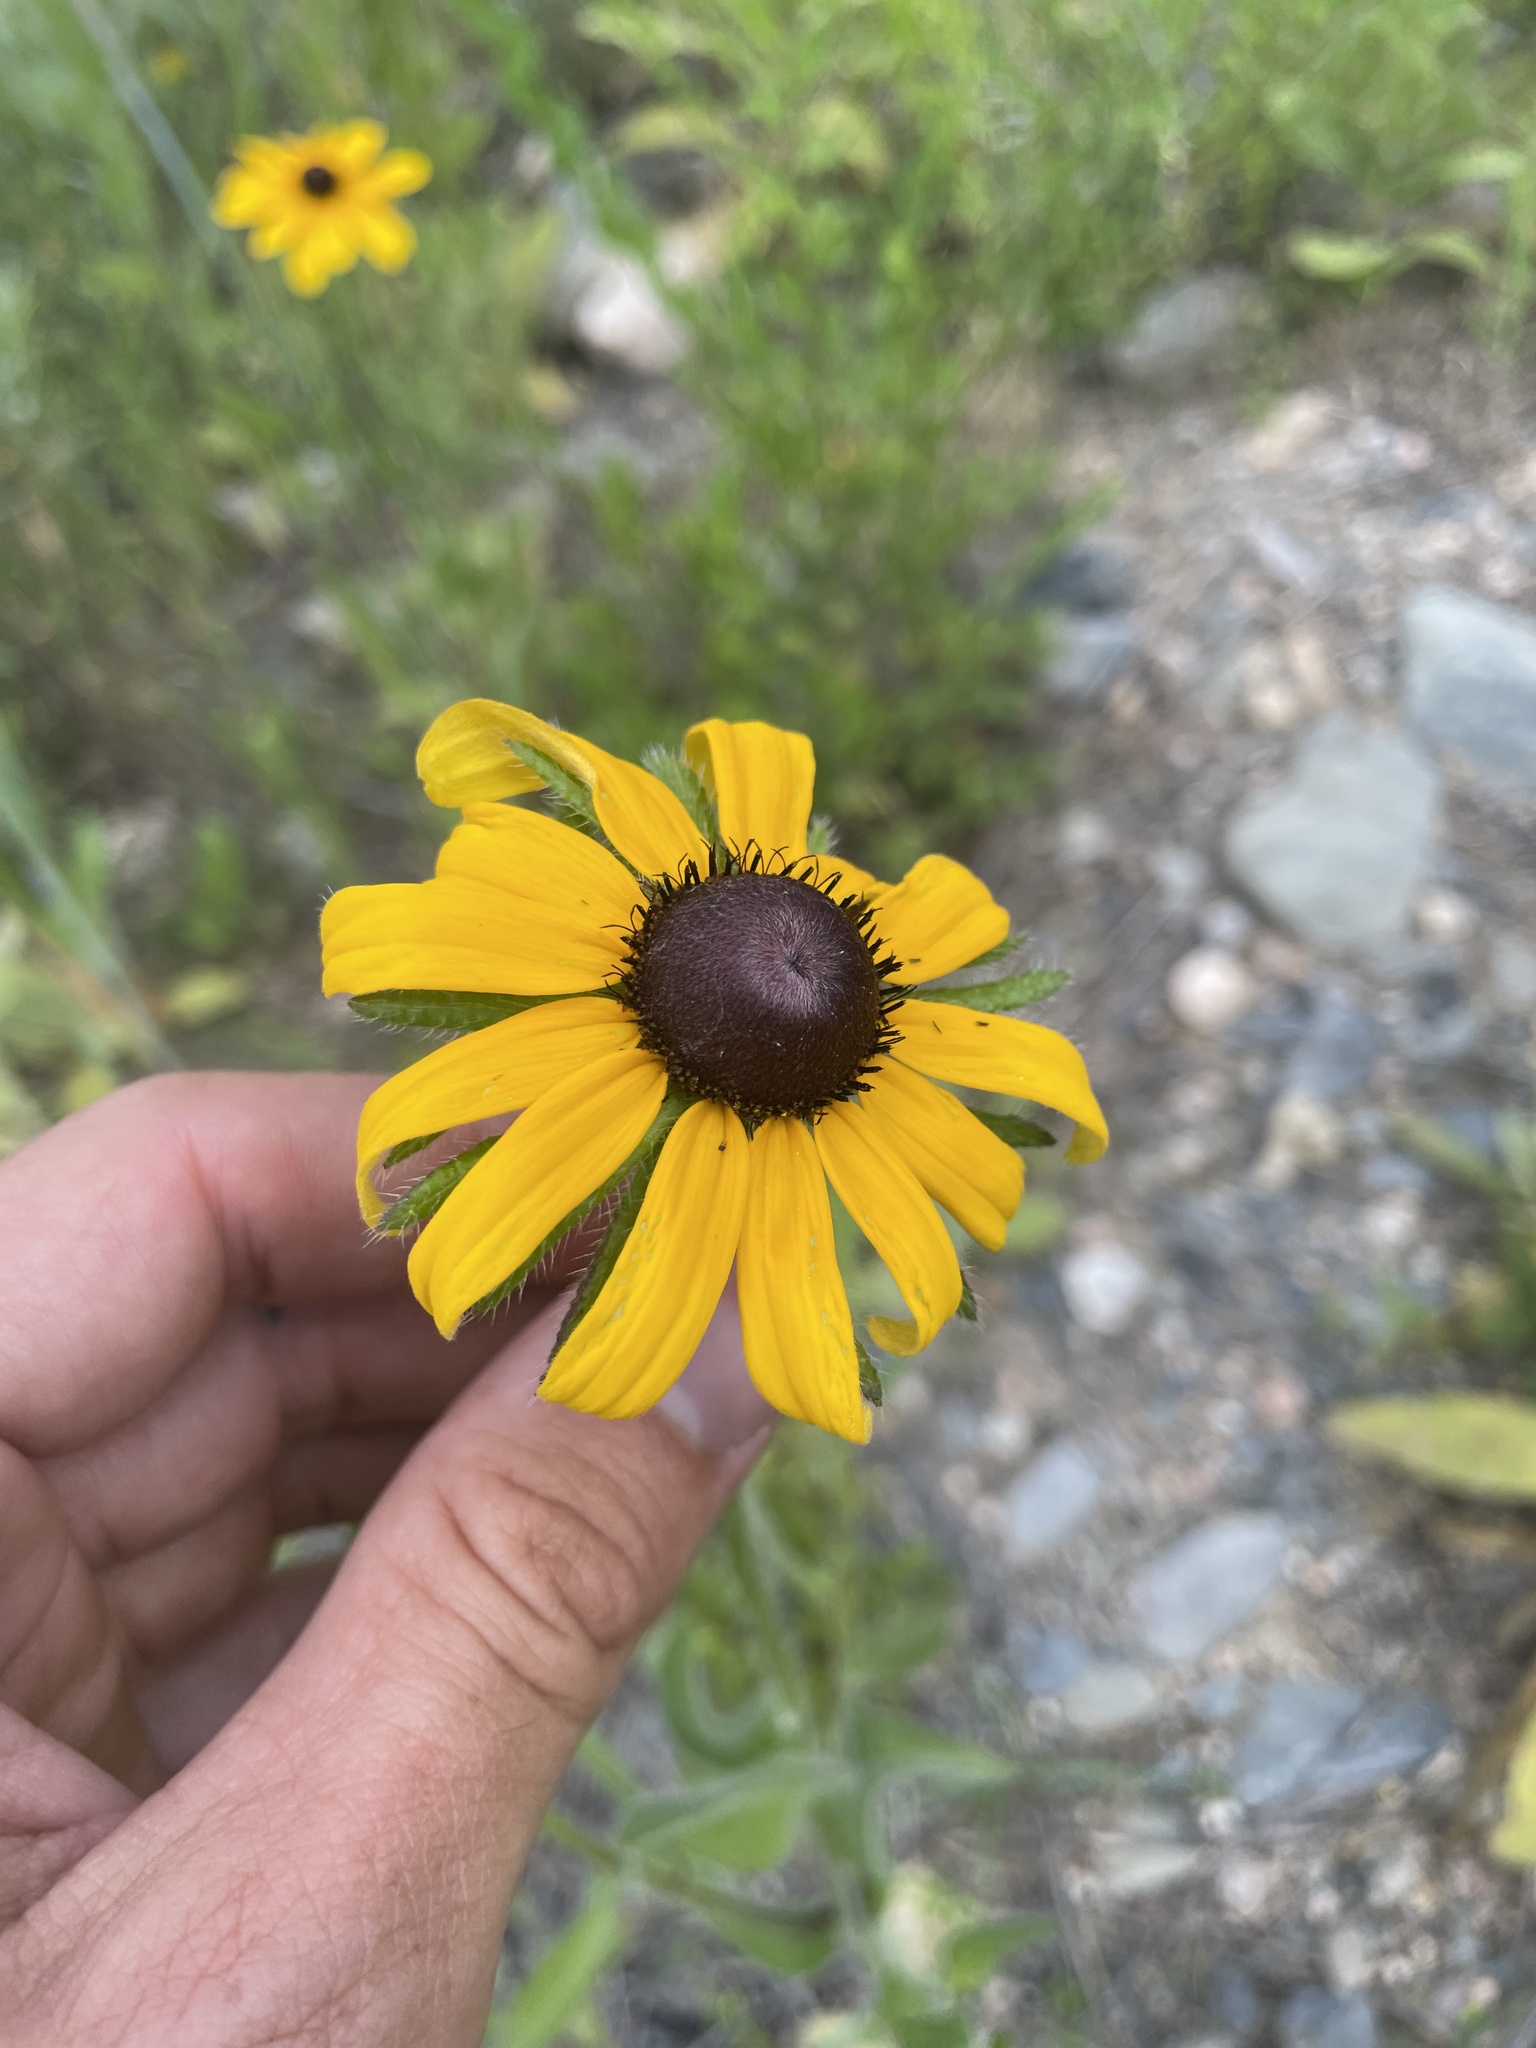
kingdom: Plantae
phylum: Tracheophyta
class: Magnoliopsida
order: Asterales
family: Asteraceae
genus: Rudbeckia
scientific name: Rudbeckia hirta
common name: Black-eyed-susan
